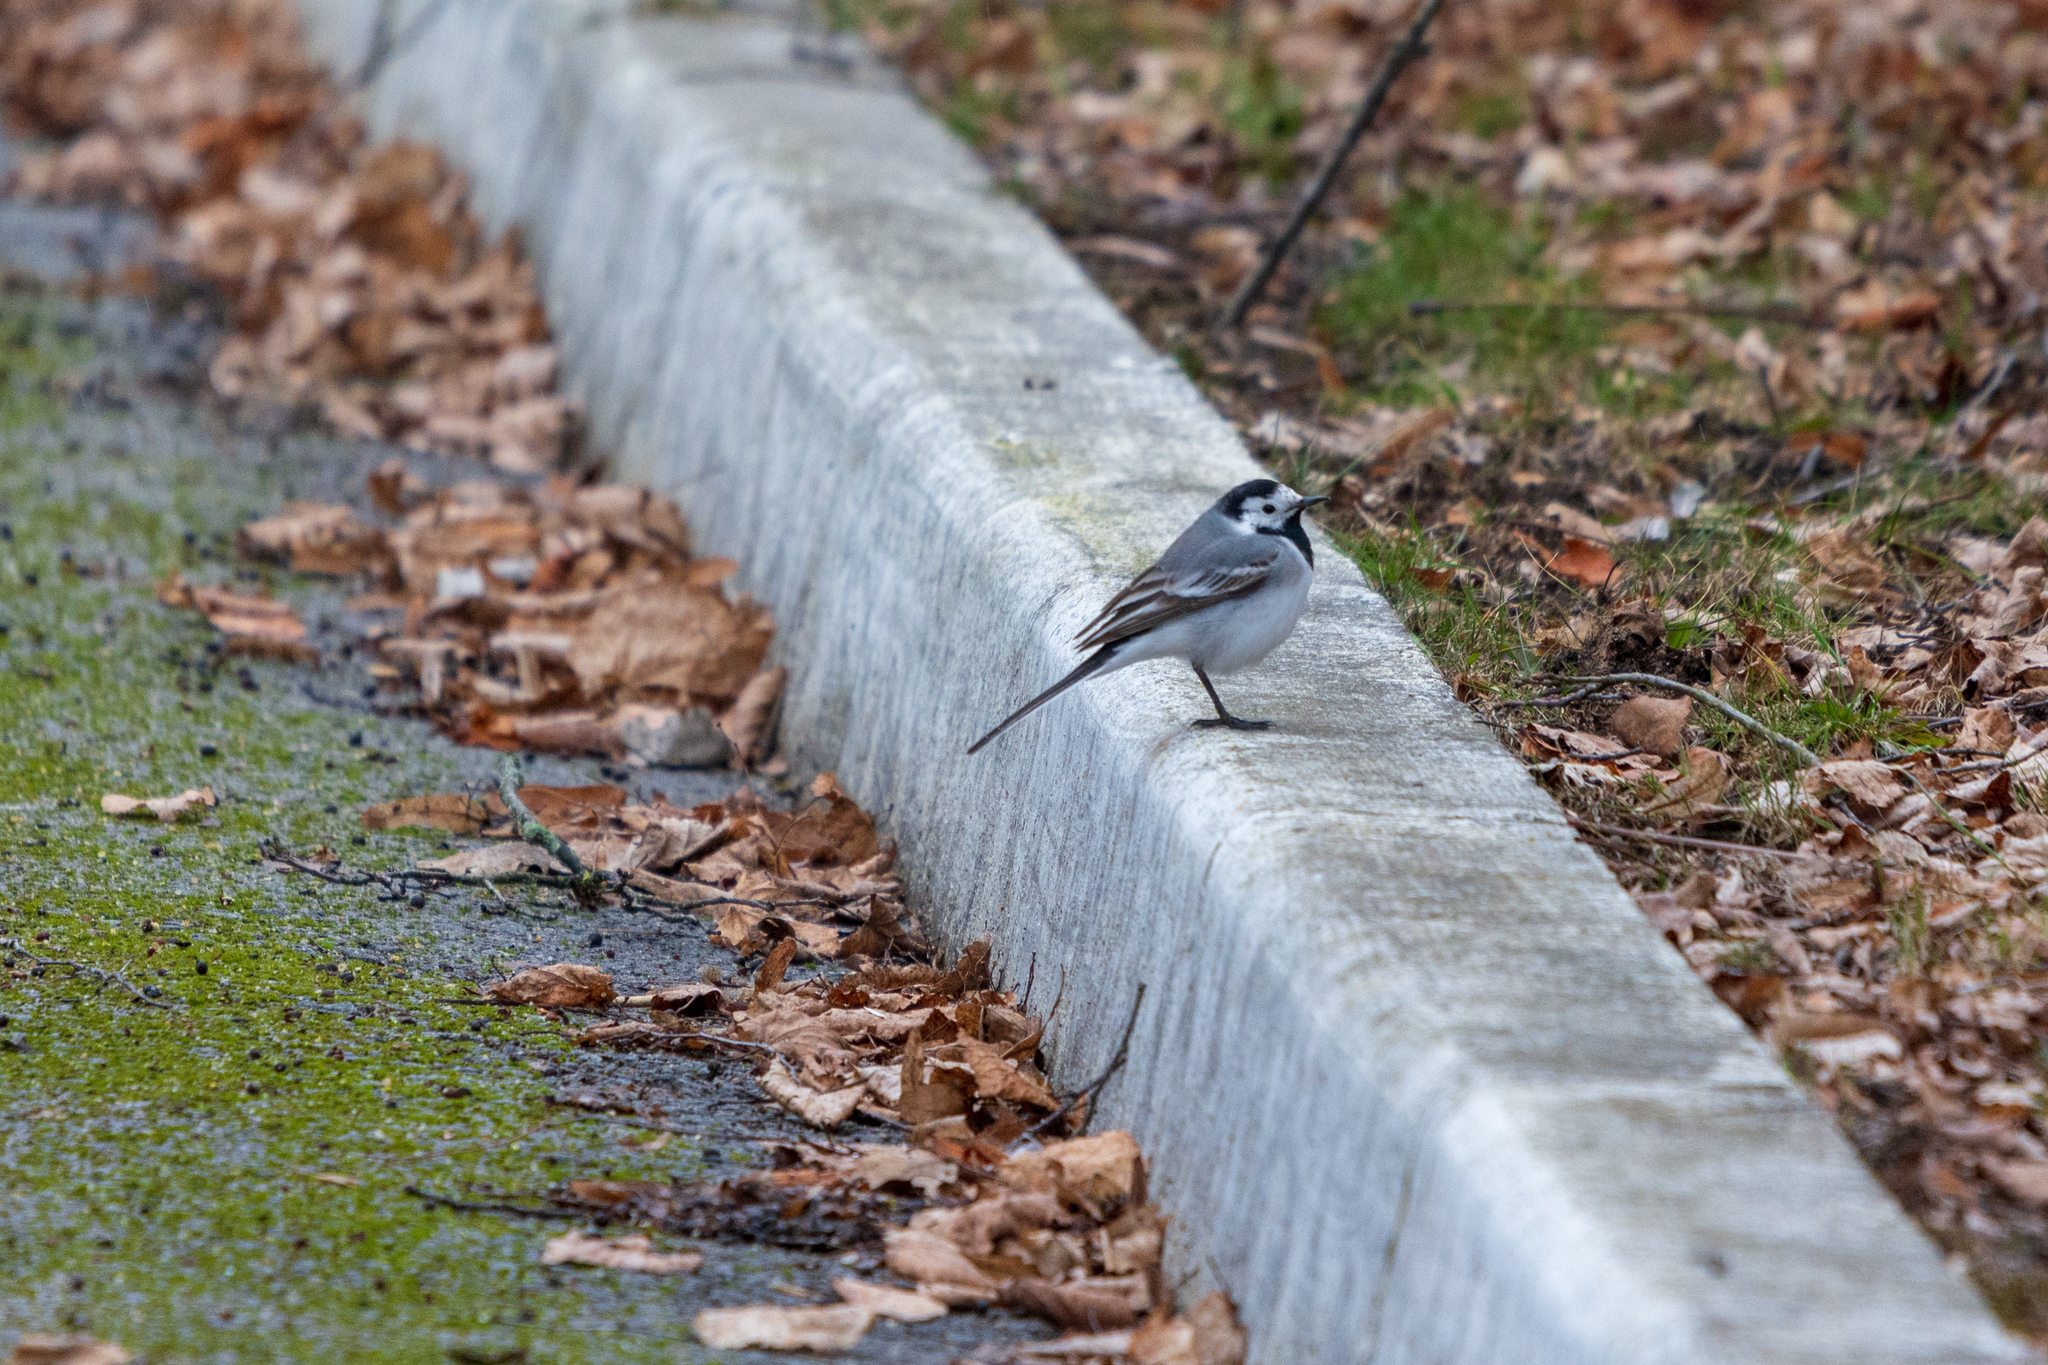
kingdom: Animalia
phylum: Chordata
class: Aves
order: Passeriformes
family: Motacillidae
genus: Motacilla
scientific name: Motacilla alba
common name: White wagtail
